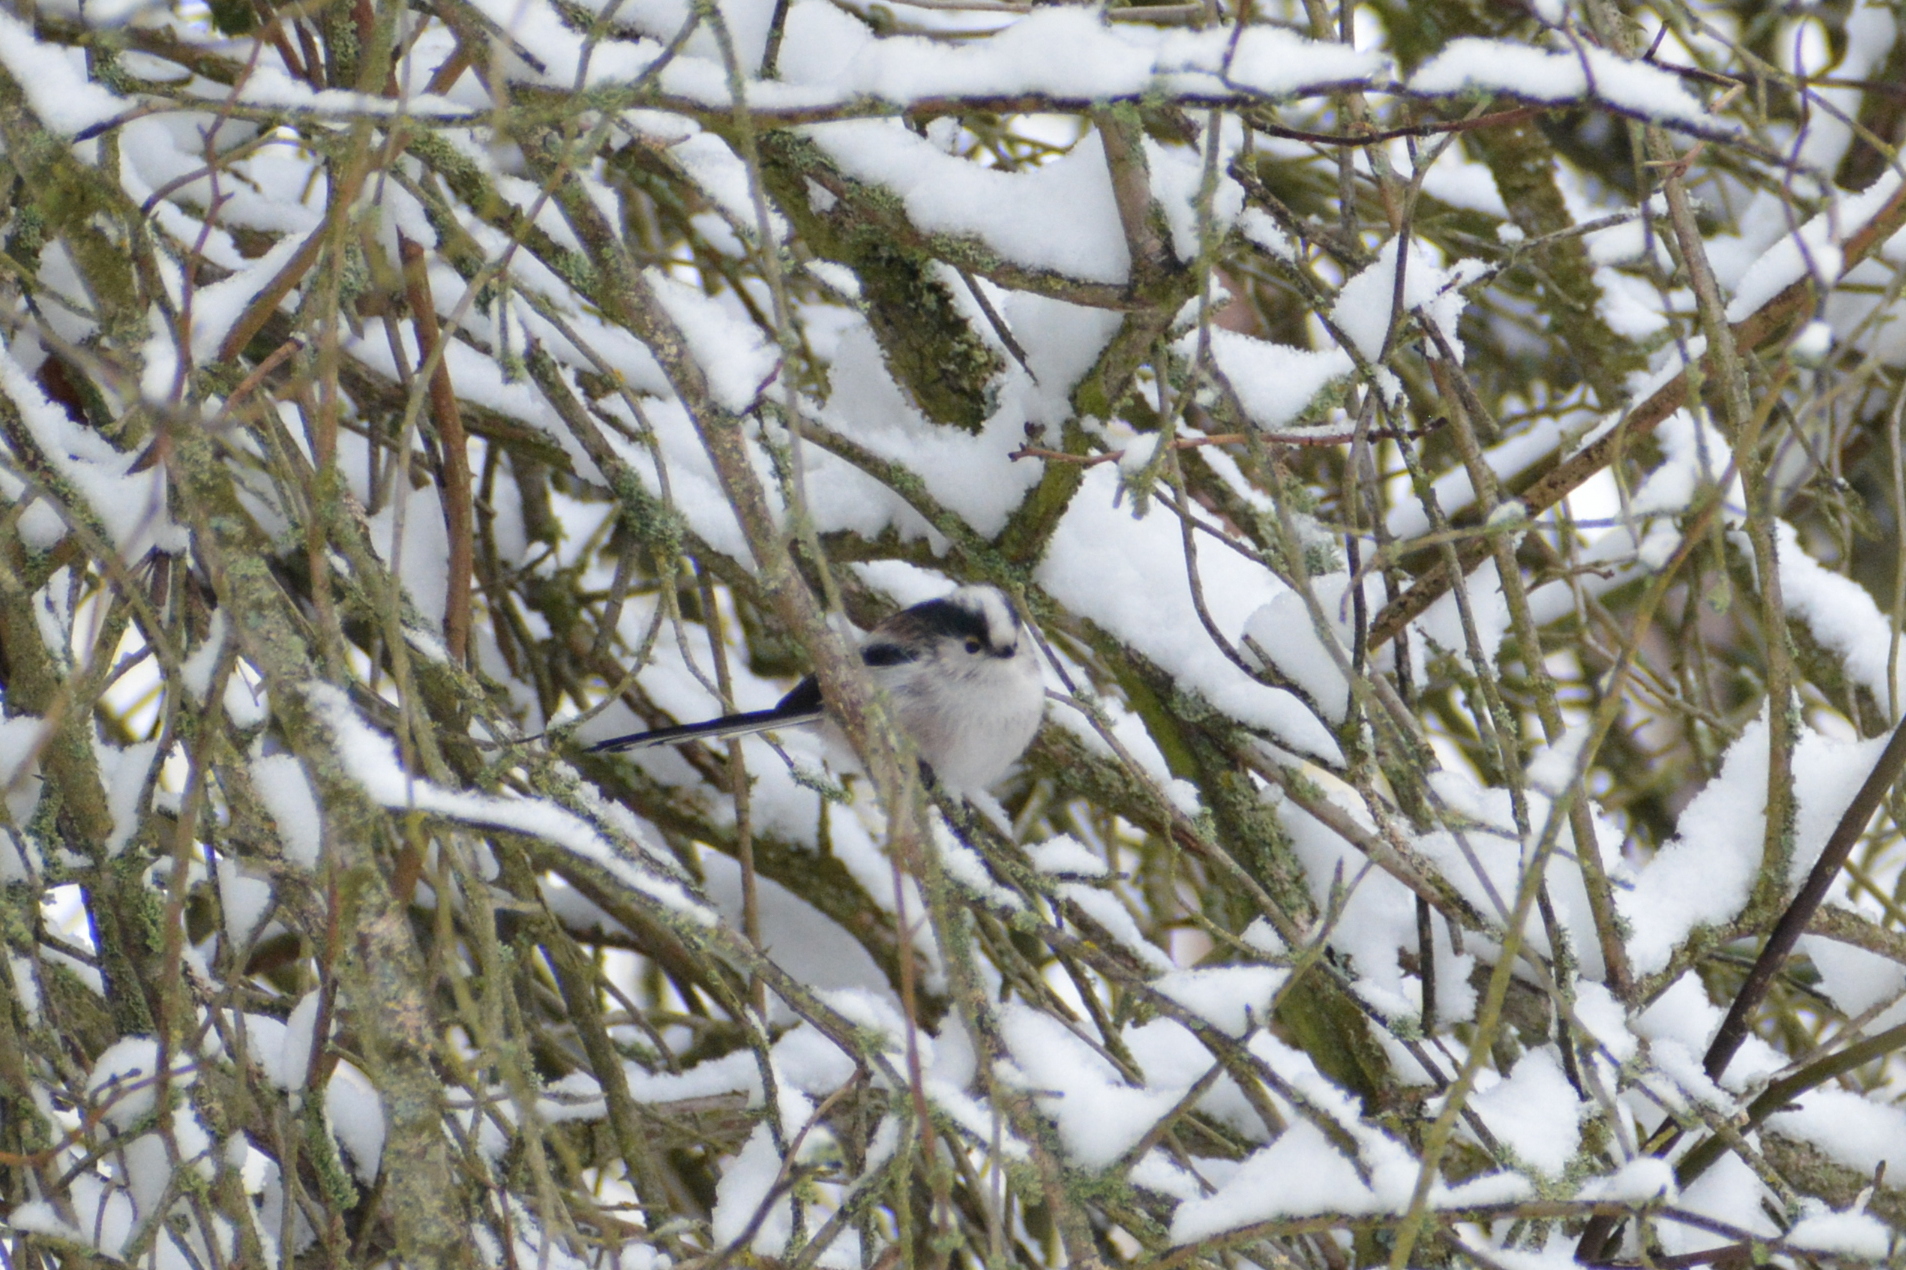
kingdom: Animalia
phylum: Chordata
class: Aves
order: Passeriformes
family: Aegithalidae
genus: Aegithalos
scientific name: Aegithalos caudatus
